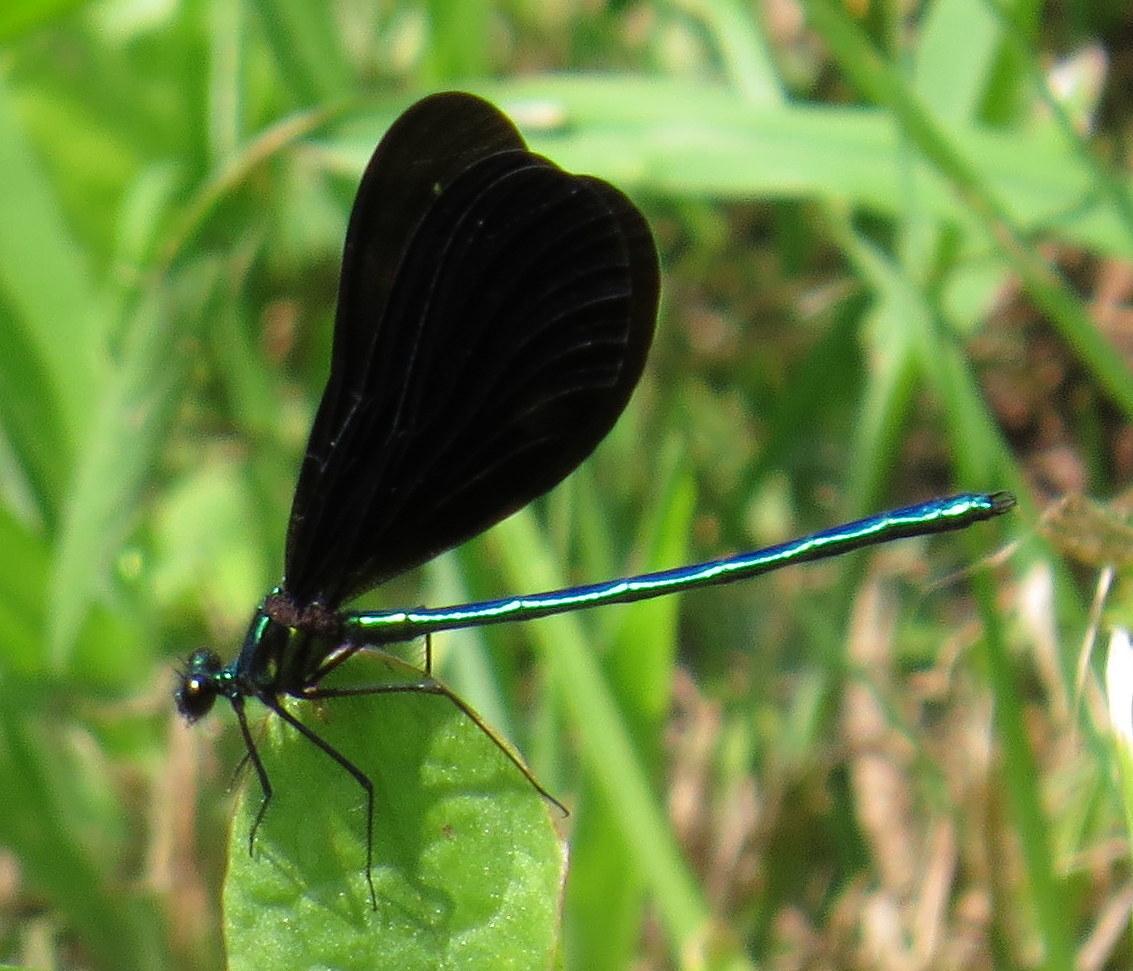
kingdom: Animalia
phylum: Arthropoda
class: Insecta
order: Odonata
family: Calopterygidae
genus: Calopteryx
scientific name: Calopteryx maculata
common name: Ebony jewelwing
